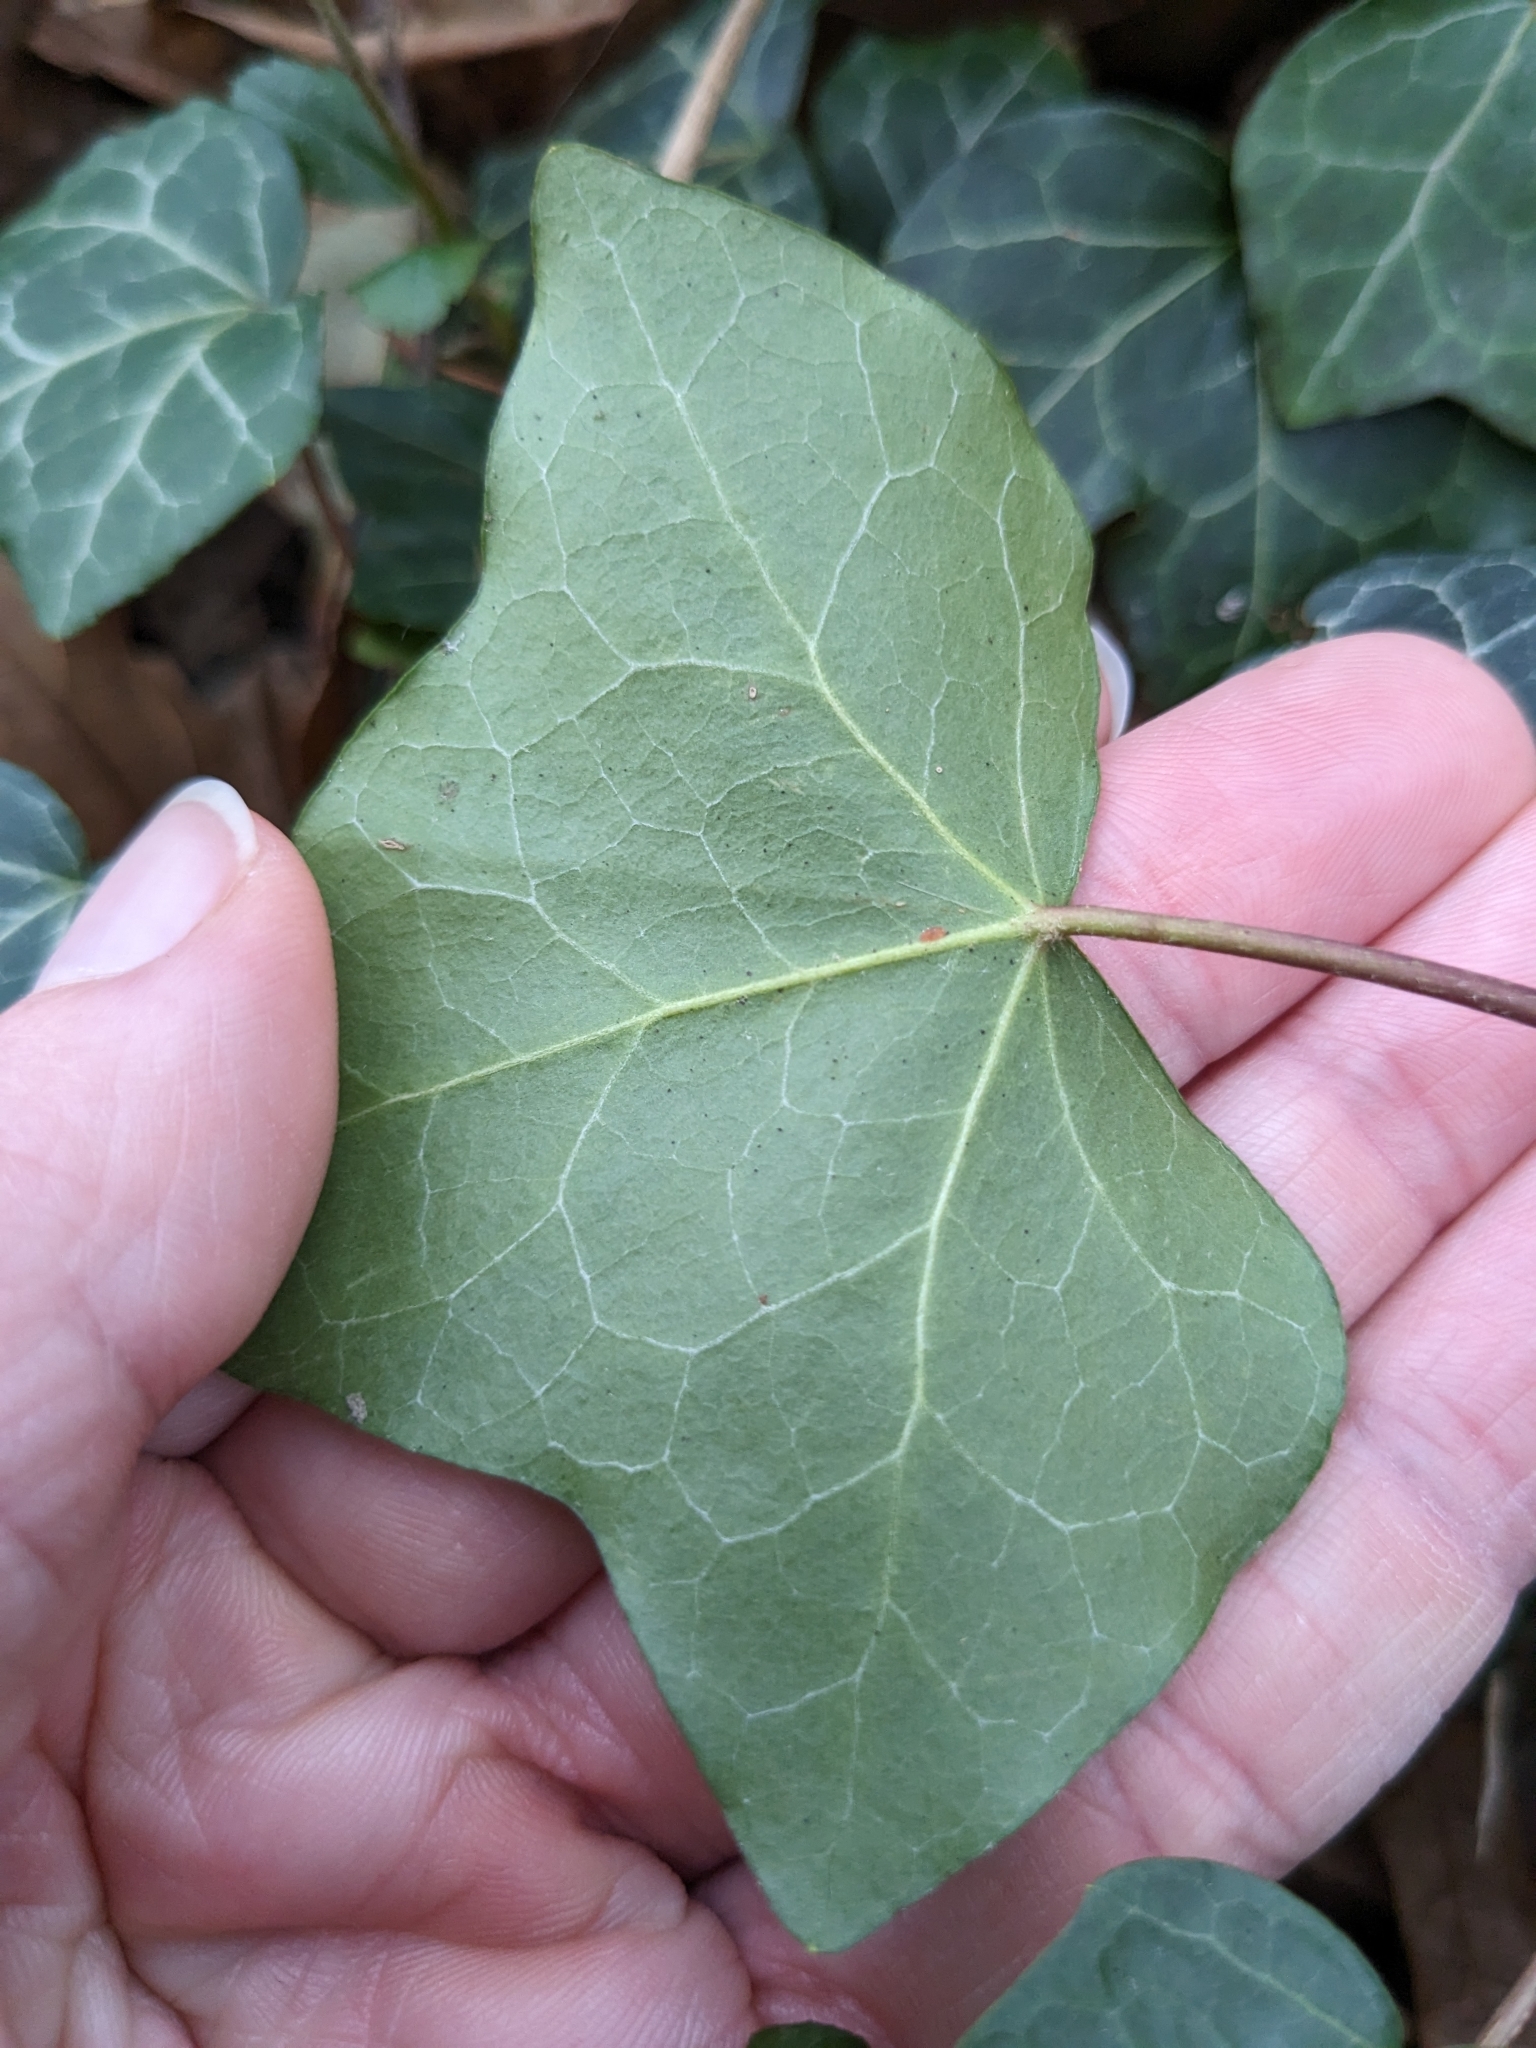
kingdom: Plantae
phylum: Tracheophyta
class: Magnoliopsida
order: Apiales
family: Araliaceae
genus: Hedera
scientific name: Hedera helix
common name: Ivy
